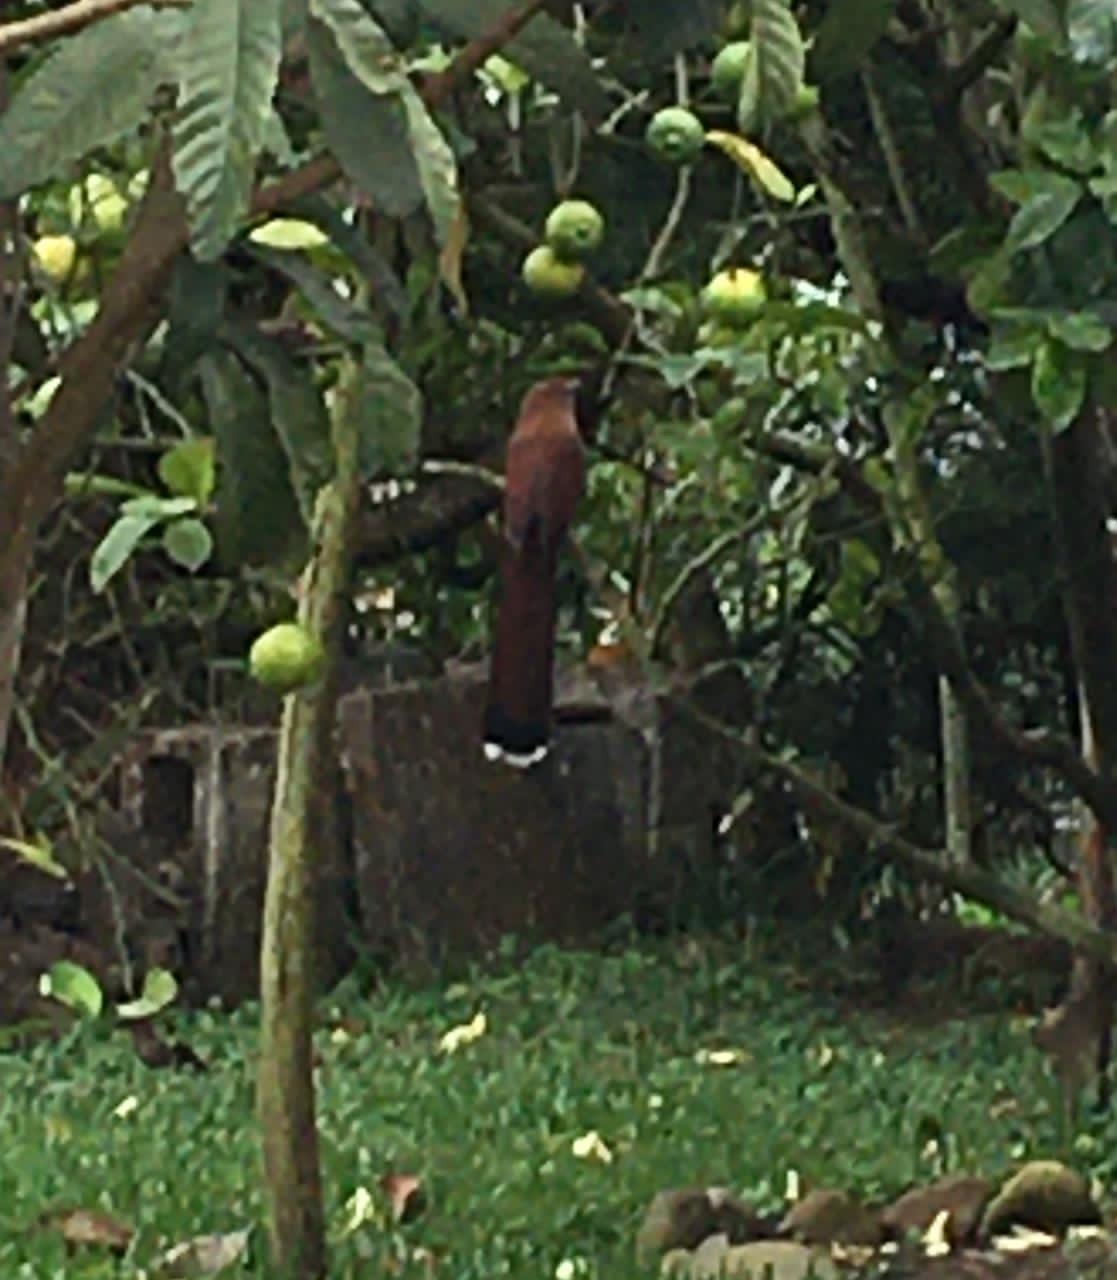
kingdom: Animalia
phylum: Chordata
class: Aves
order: Cuculiformes
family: Cuculidae
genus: Piaya
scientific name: Piaya cayana
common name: Squirrel cuckoo
